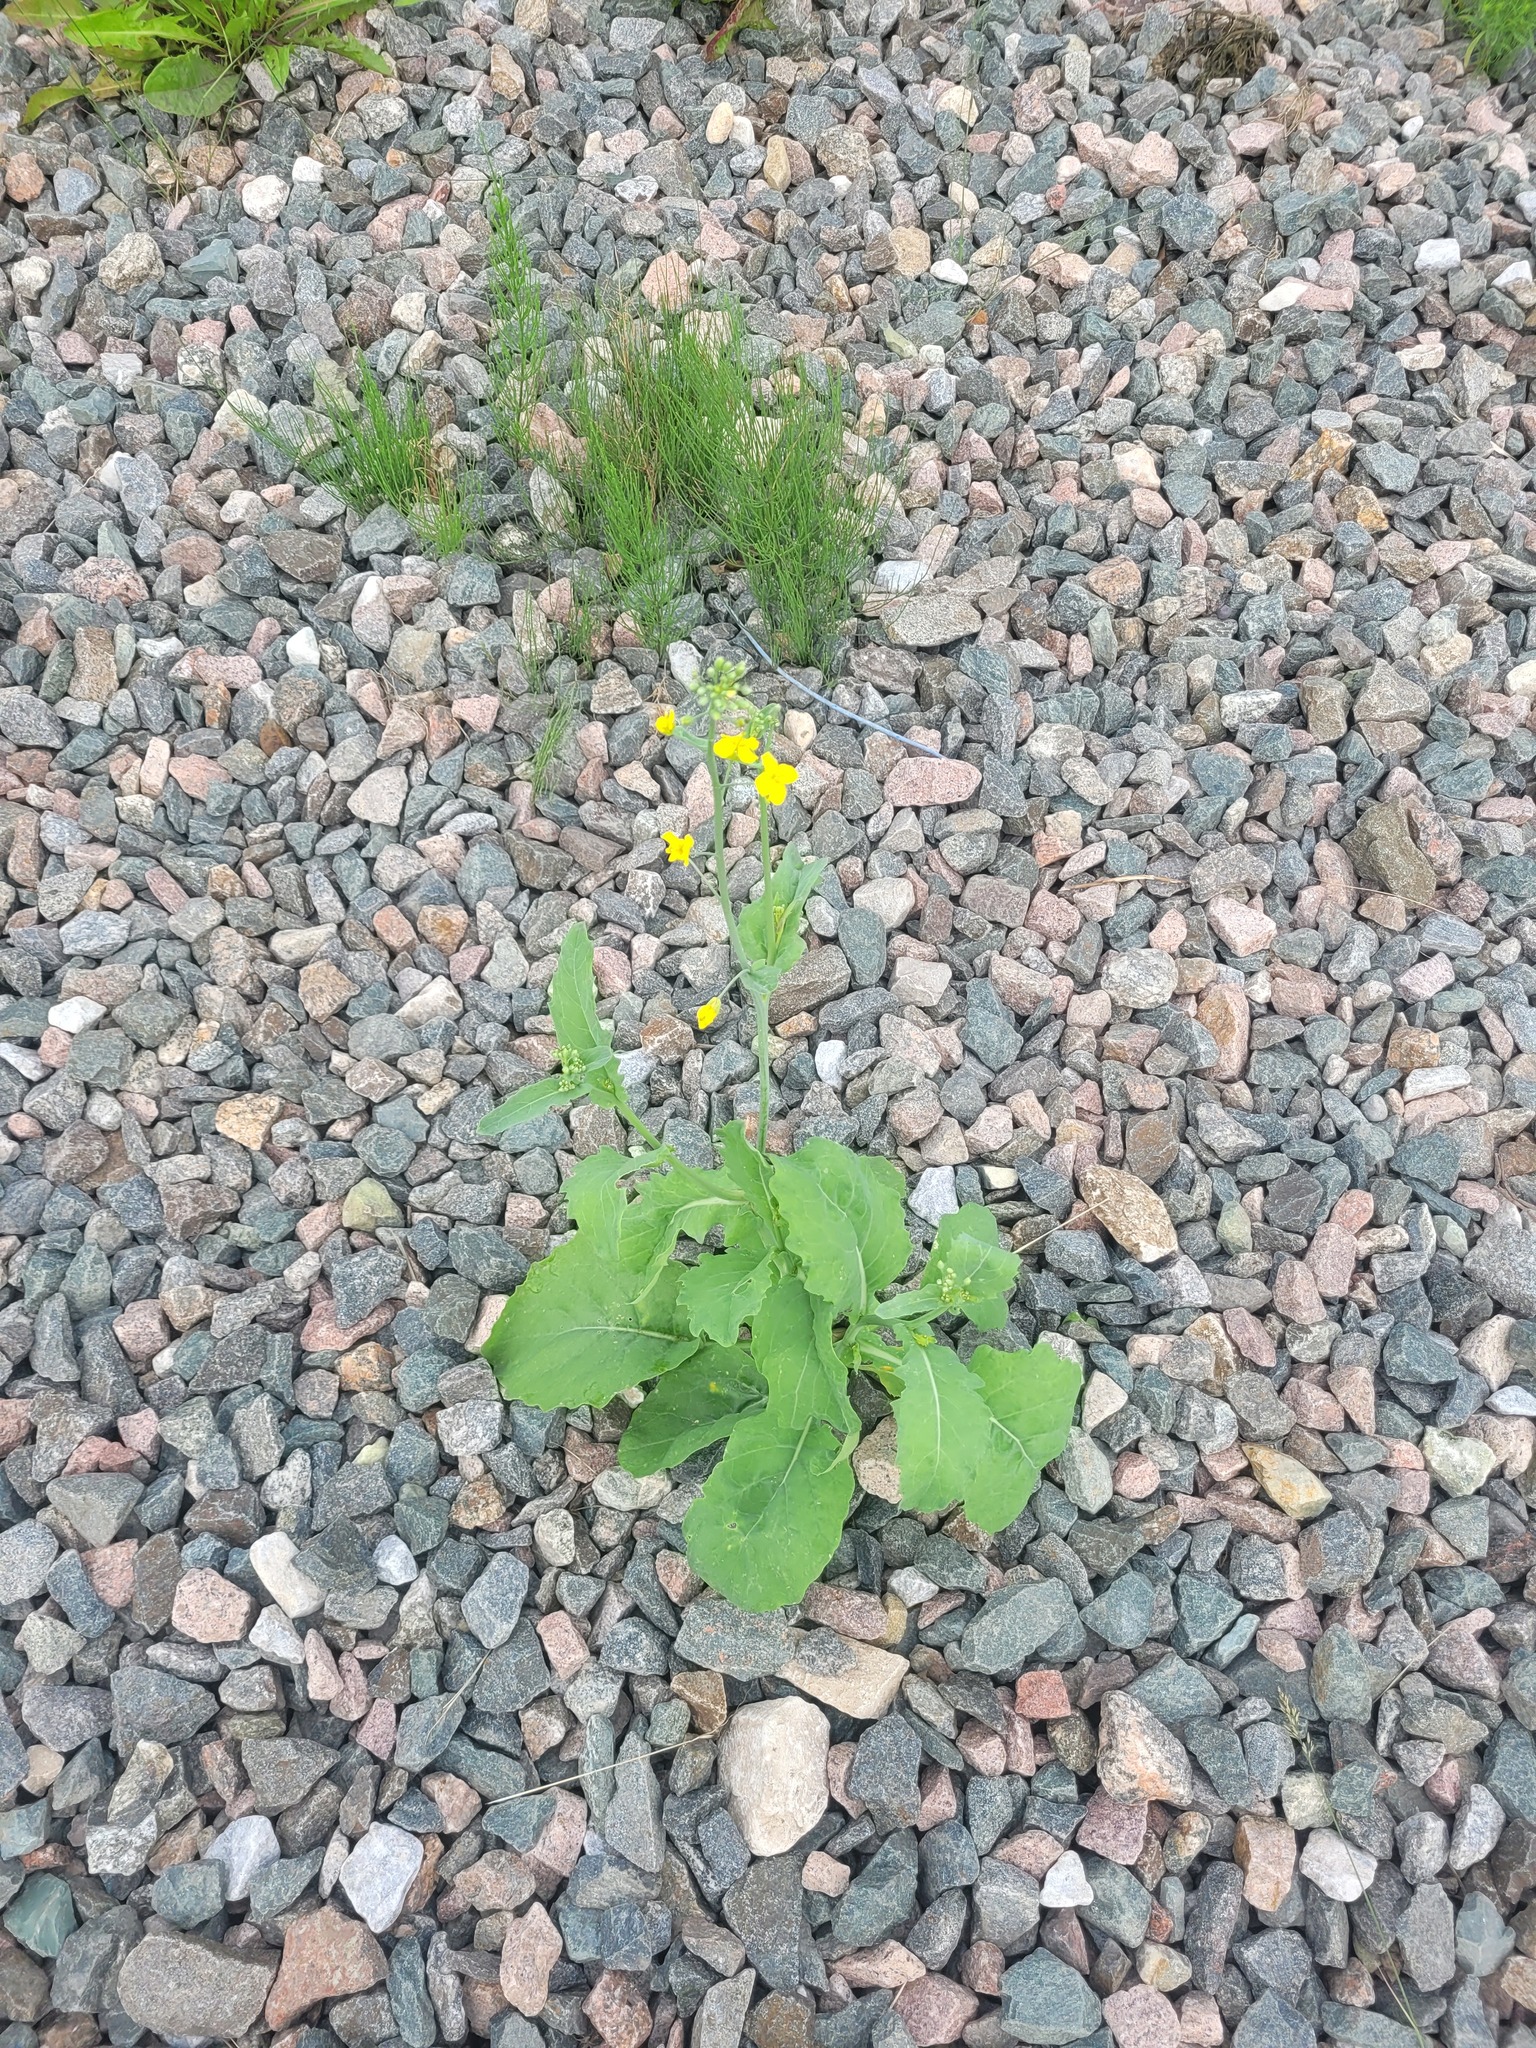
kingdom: Plantae
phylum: Tracheophyta
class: Magnoliopsida
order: Brassicales
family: Brassicaceae
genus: Brassica
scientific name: Brassica napus
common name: Rape
